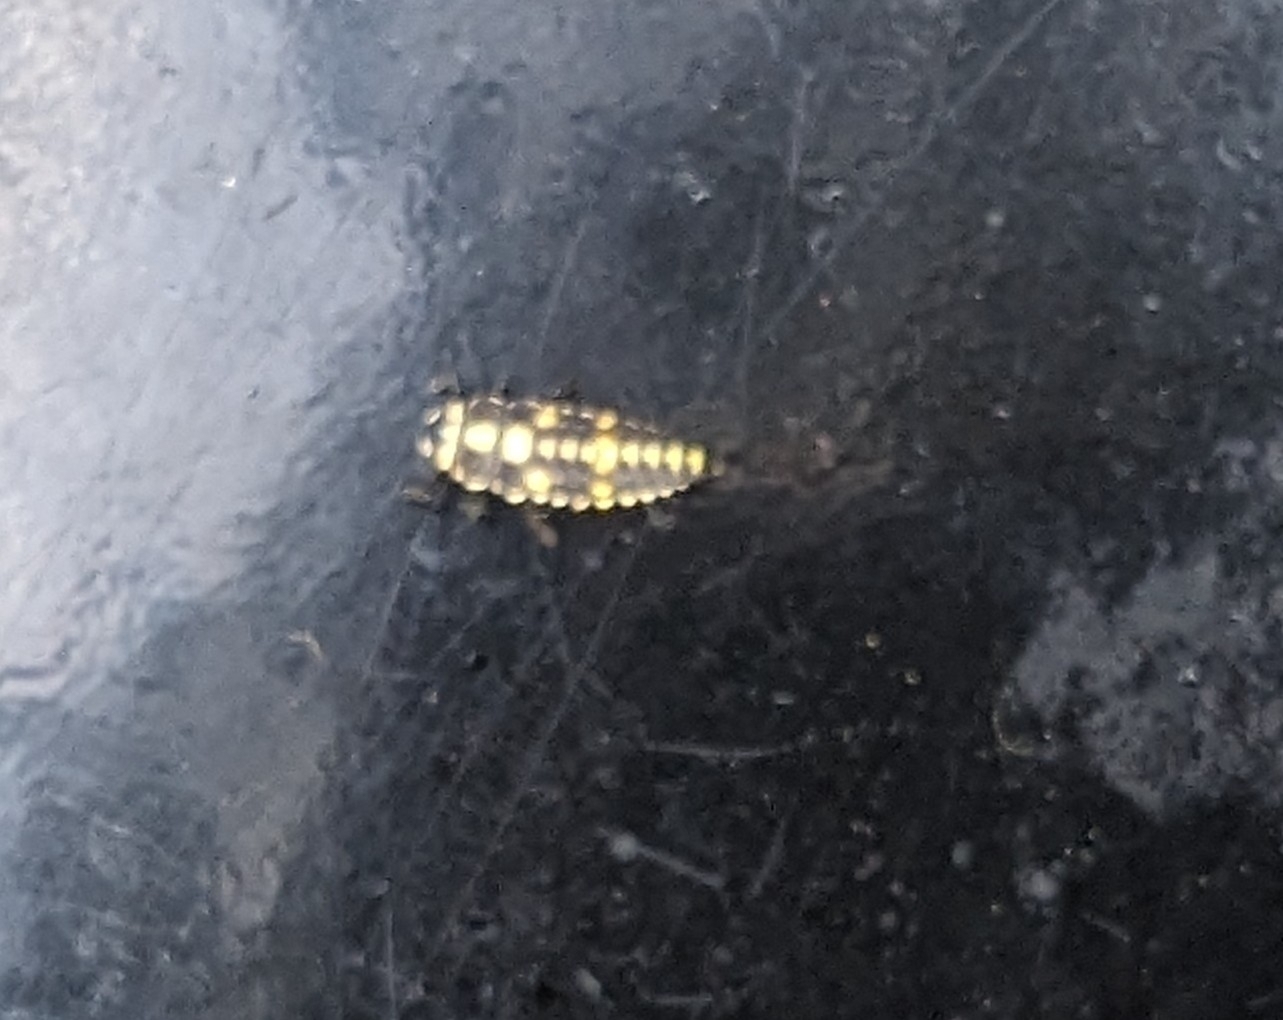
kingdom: Animalia
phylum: Arthropoda
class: Insecta
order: Coleoptera
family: Coccinellidae
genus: Olla
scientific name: Olla v-nigrum
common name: Ashy gray lady beetle
